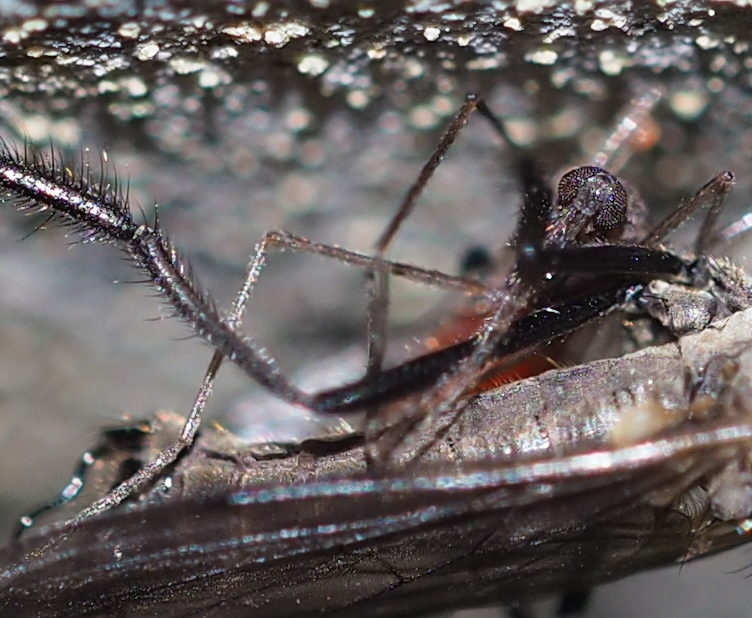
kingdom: Animalia
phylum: Arthropoda
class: Insecta
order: Diptera
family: Empididae
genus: Rhamphomyia
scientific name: Rhamphomyia crassirostris
